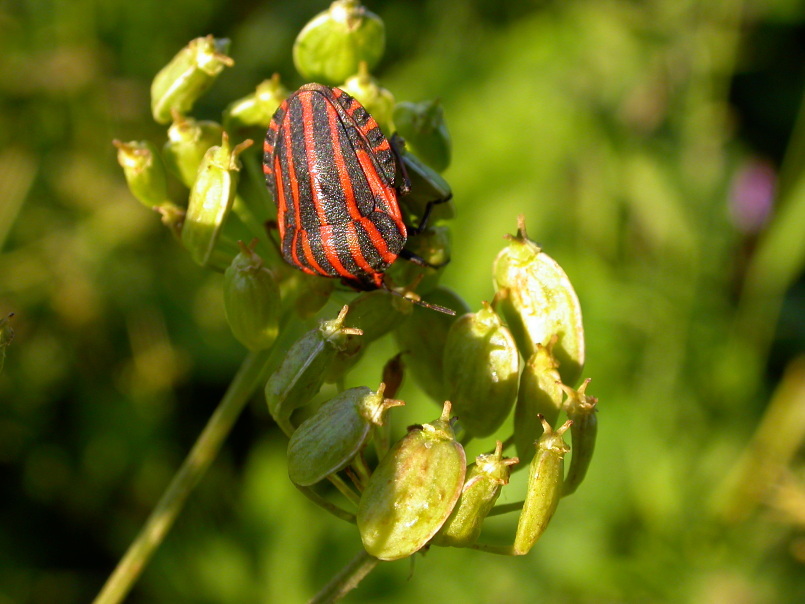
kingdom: Animalia
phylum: Arthropoda
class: Insecta
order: Hemiptera
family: Pentatomidae
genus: Graphosoma
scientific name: Graphosoma italicum
